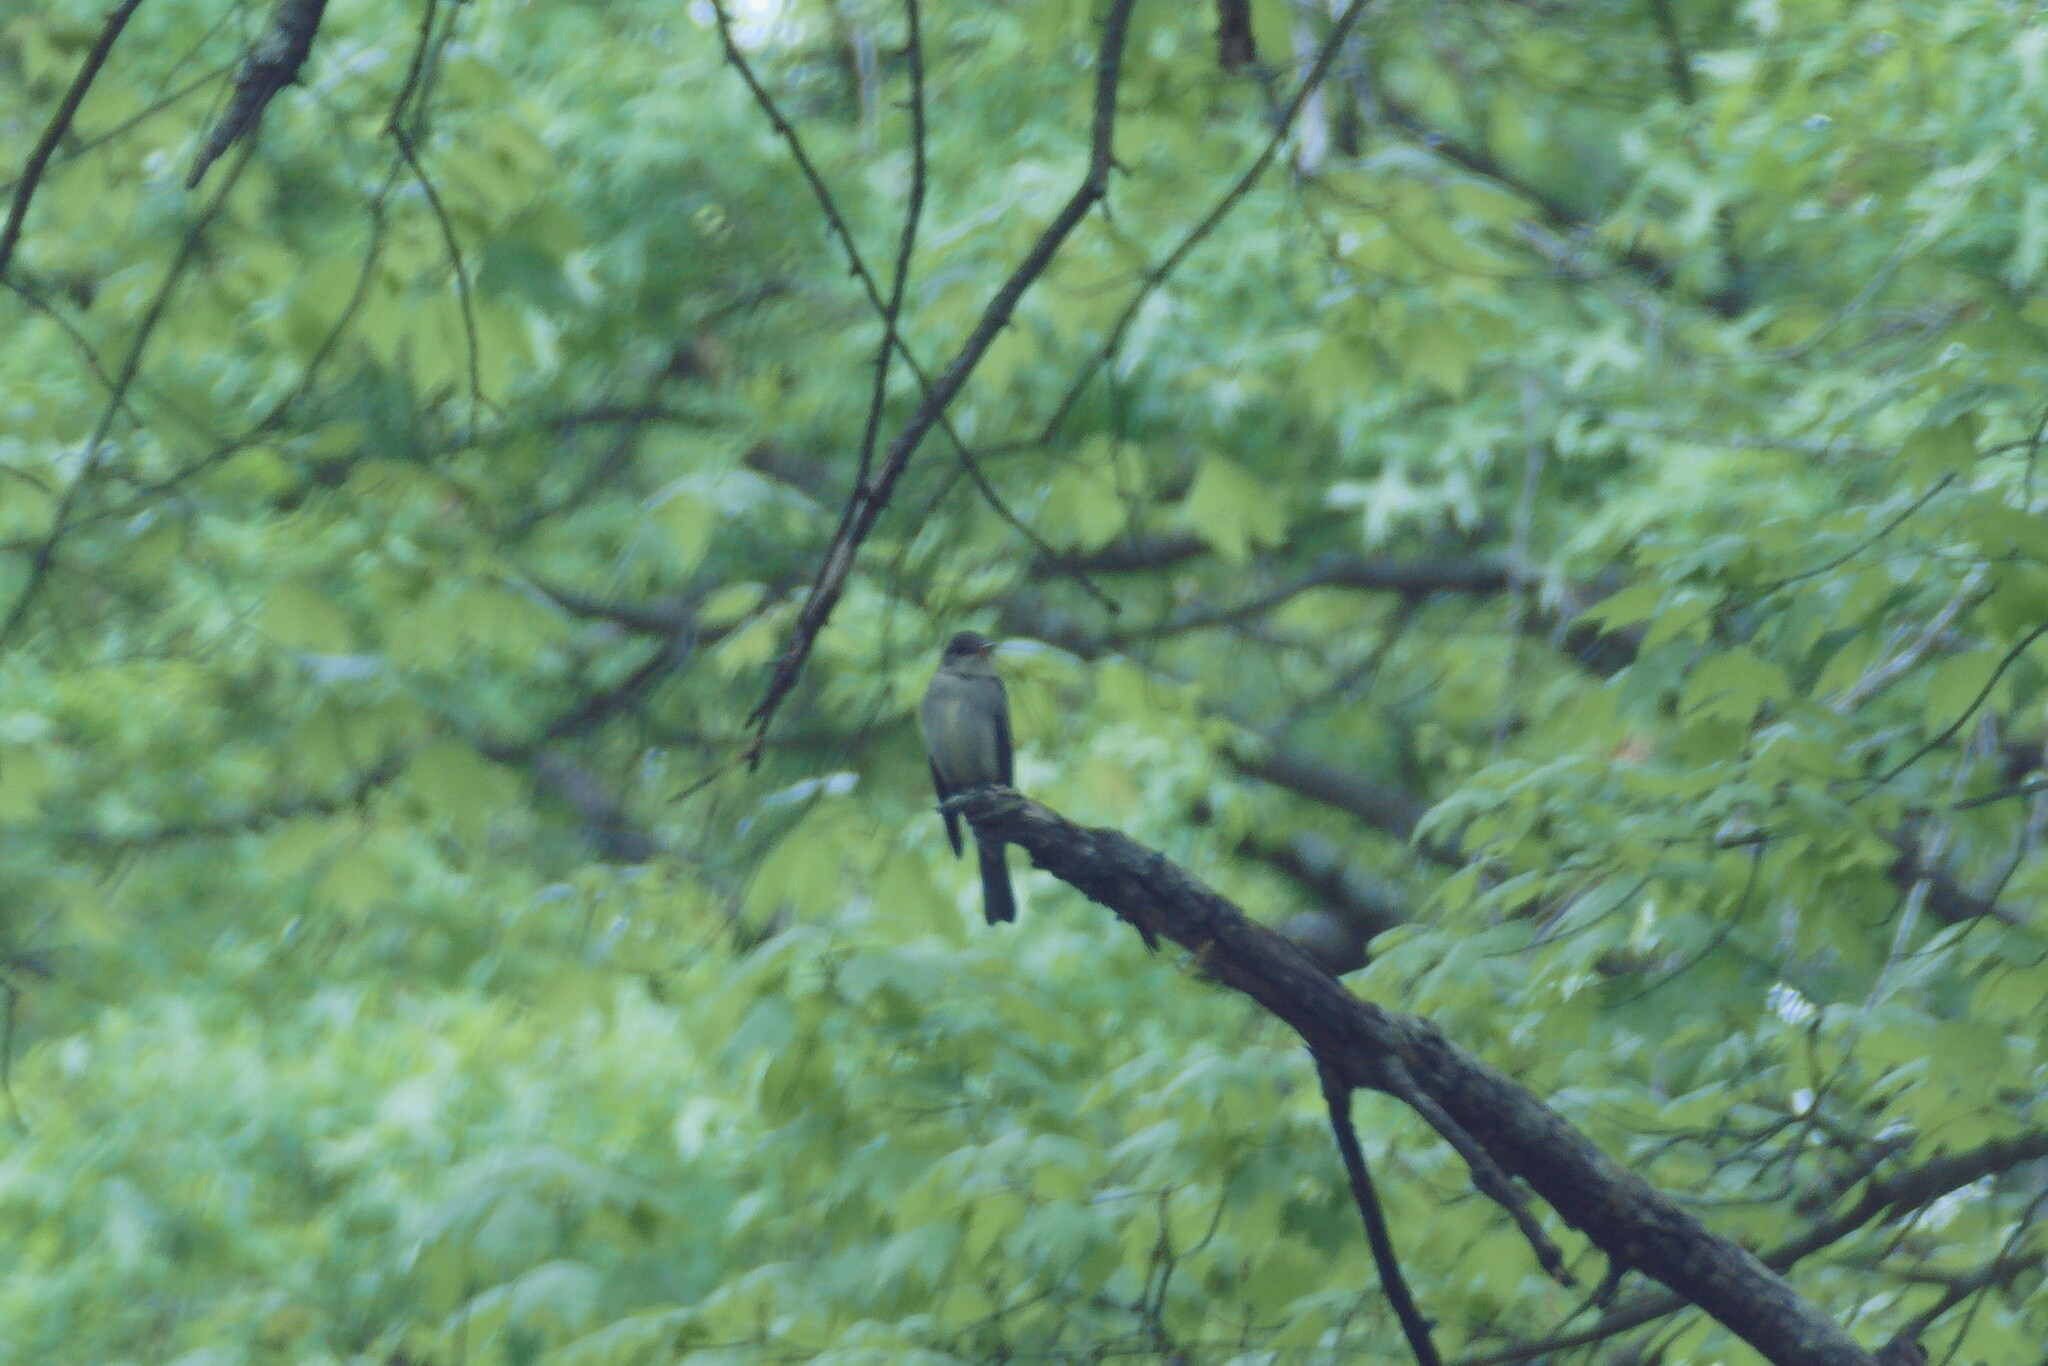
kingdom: Animalia
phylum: Chordata
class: Aves
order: Passeriformes
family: Tyrannidae
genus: Contopus
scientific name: Contopus virens
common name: Eastern wood-pewee
